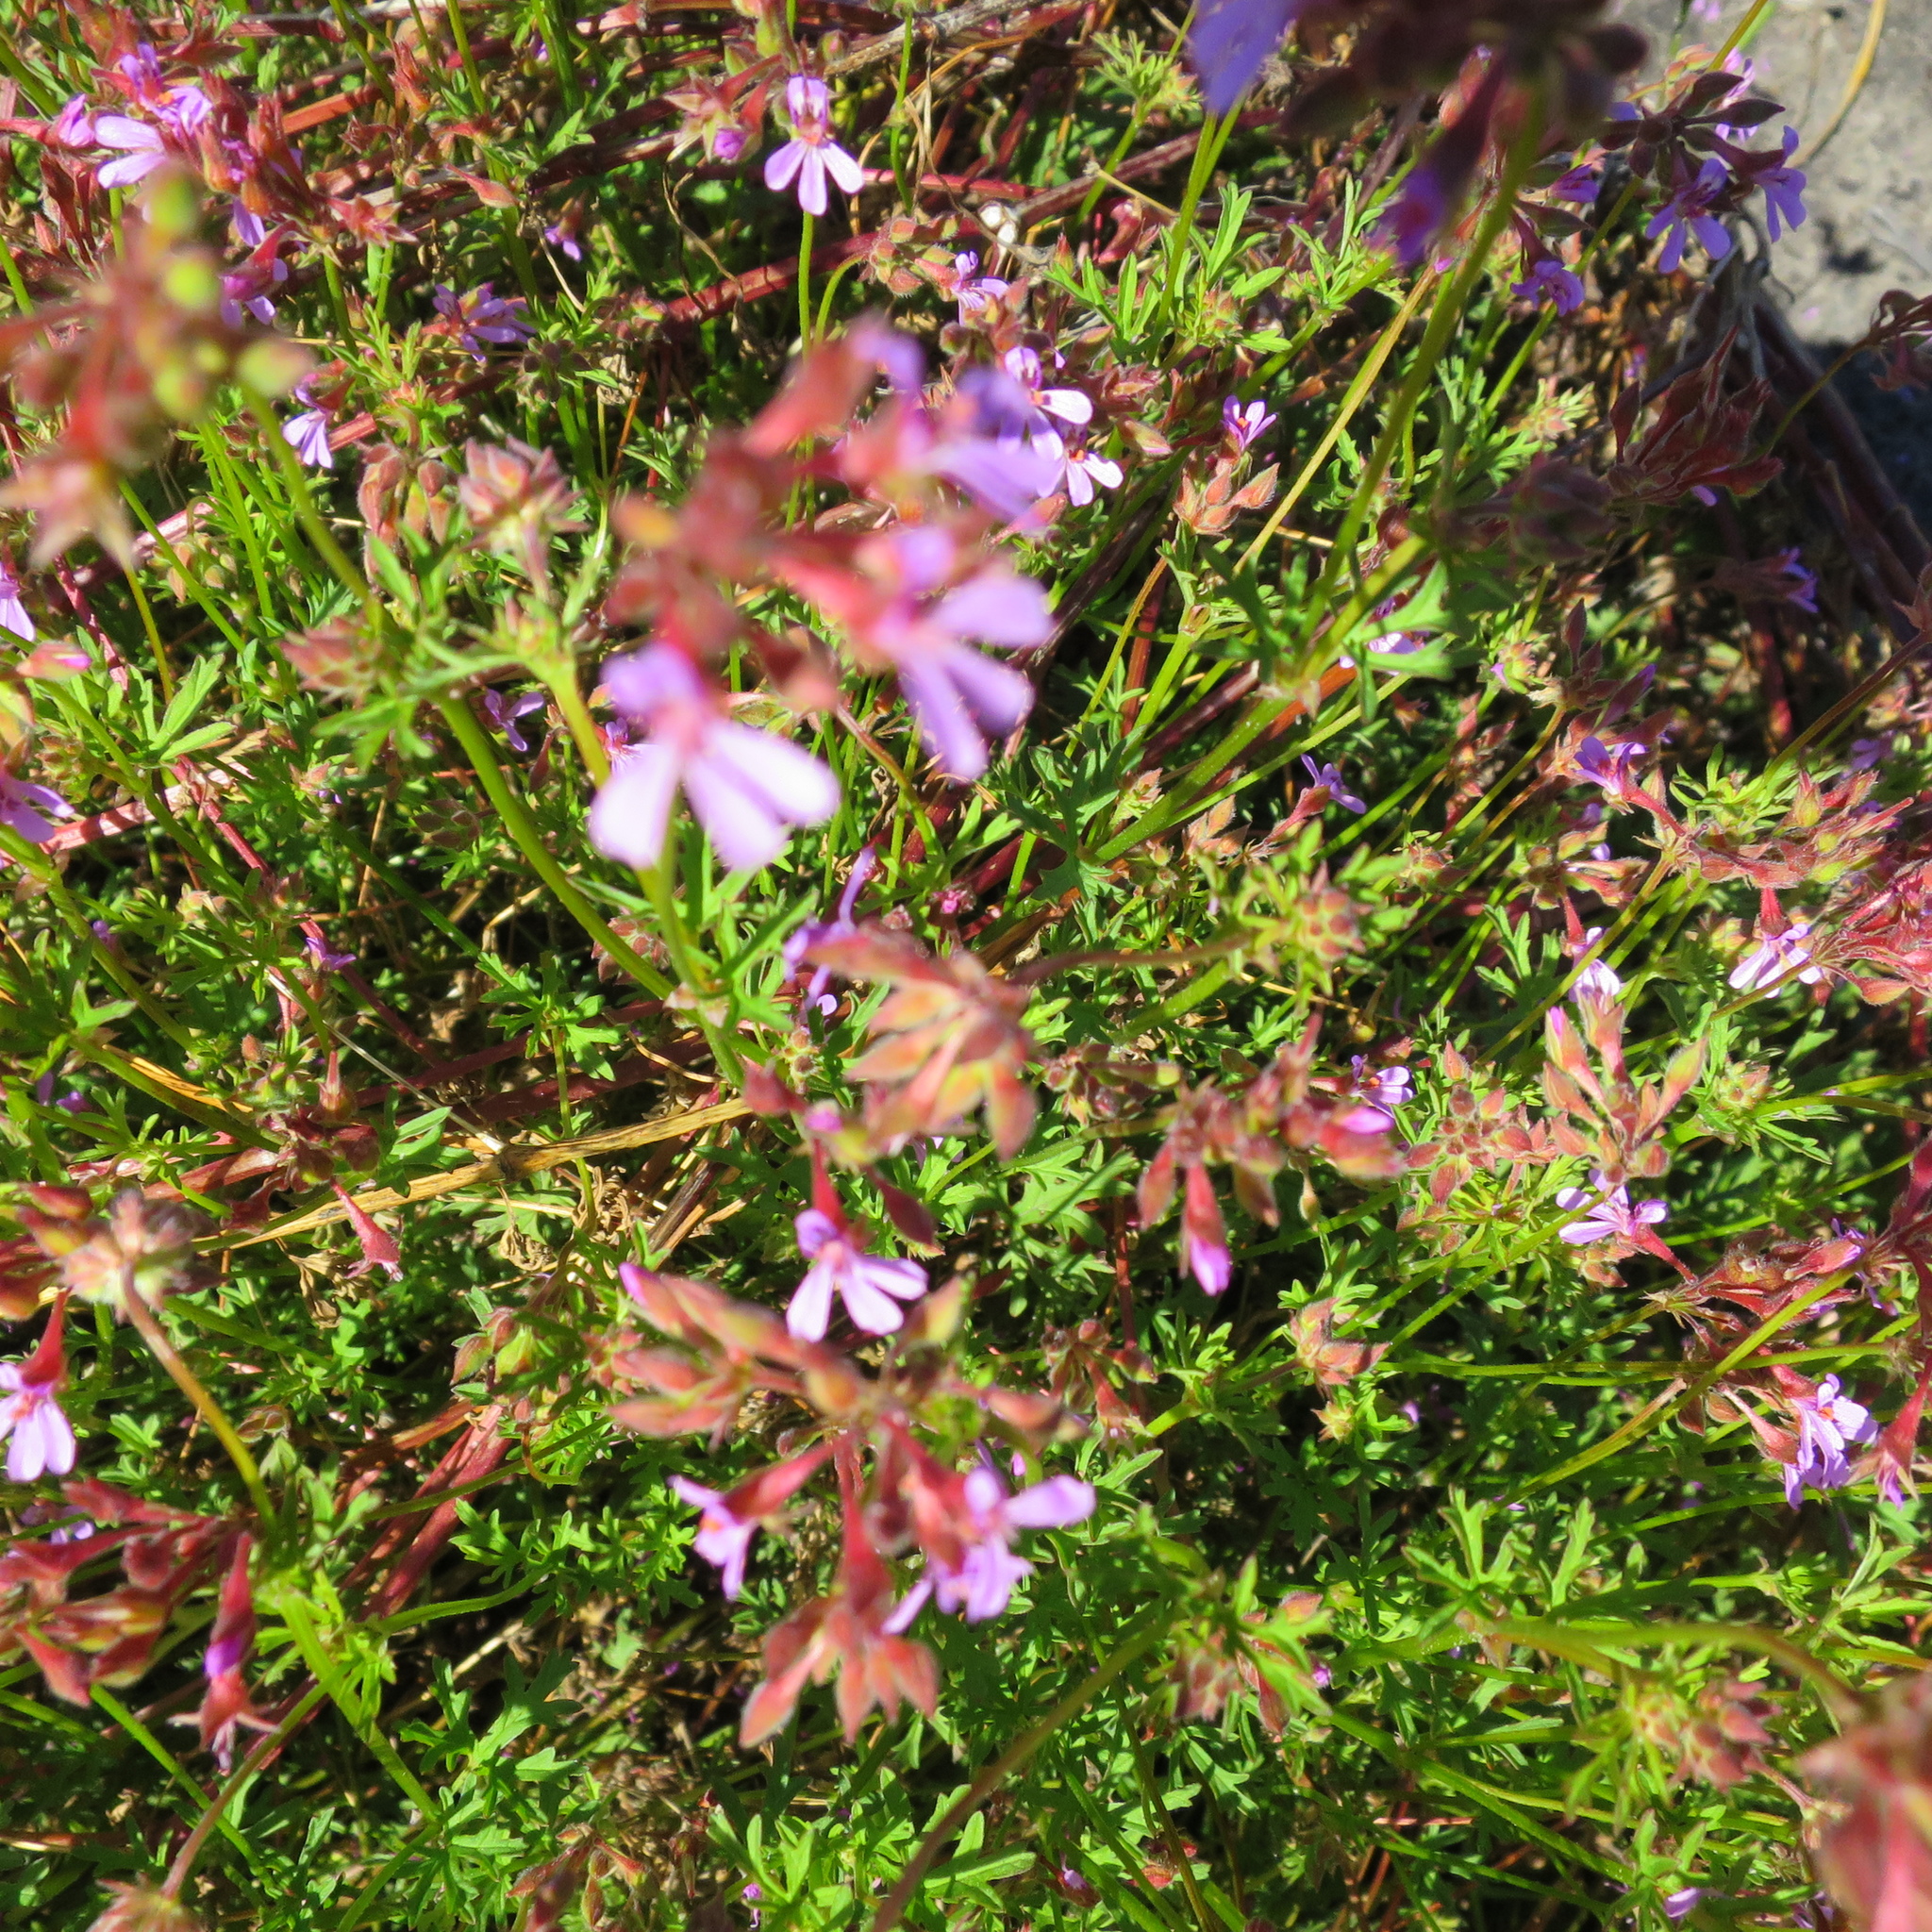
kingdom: Plantae
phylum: Tracheophyta
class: Magnoliopsida
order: Geraniales
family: Geraniaceae
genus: Pelargonium
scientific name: Pelargonium grossularioides
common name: Gooseberry geranium
